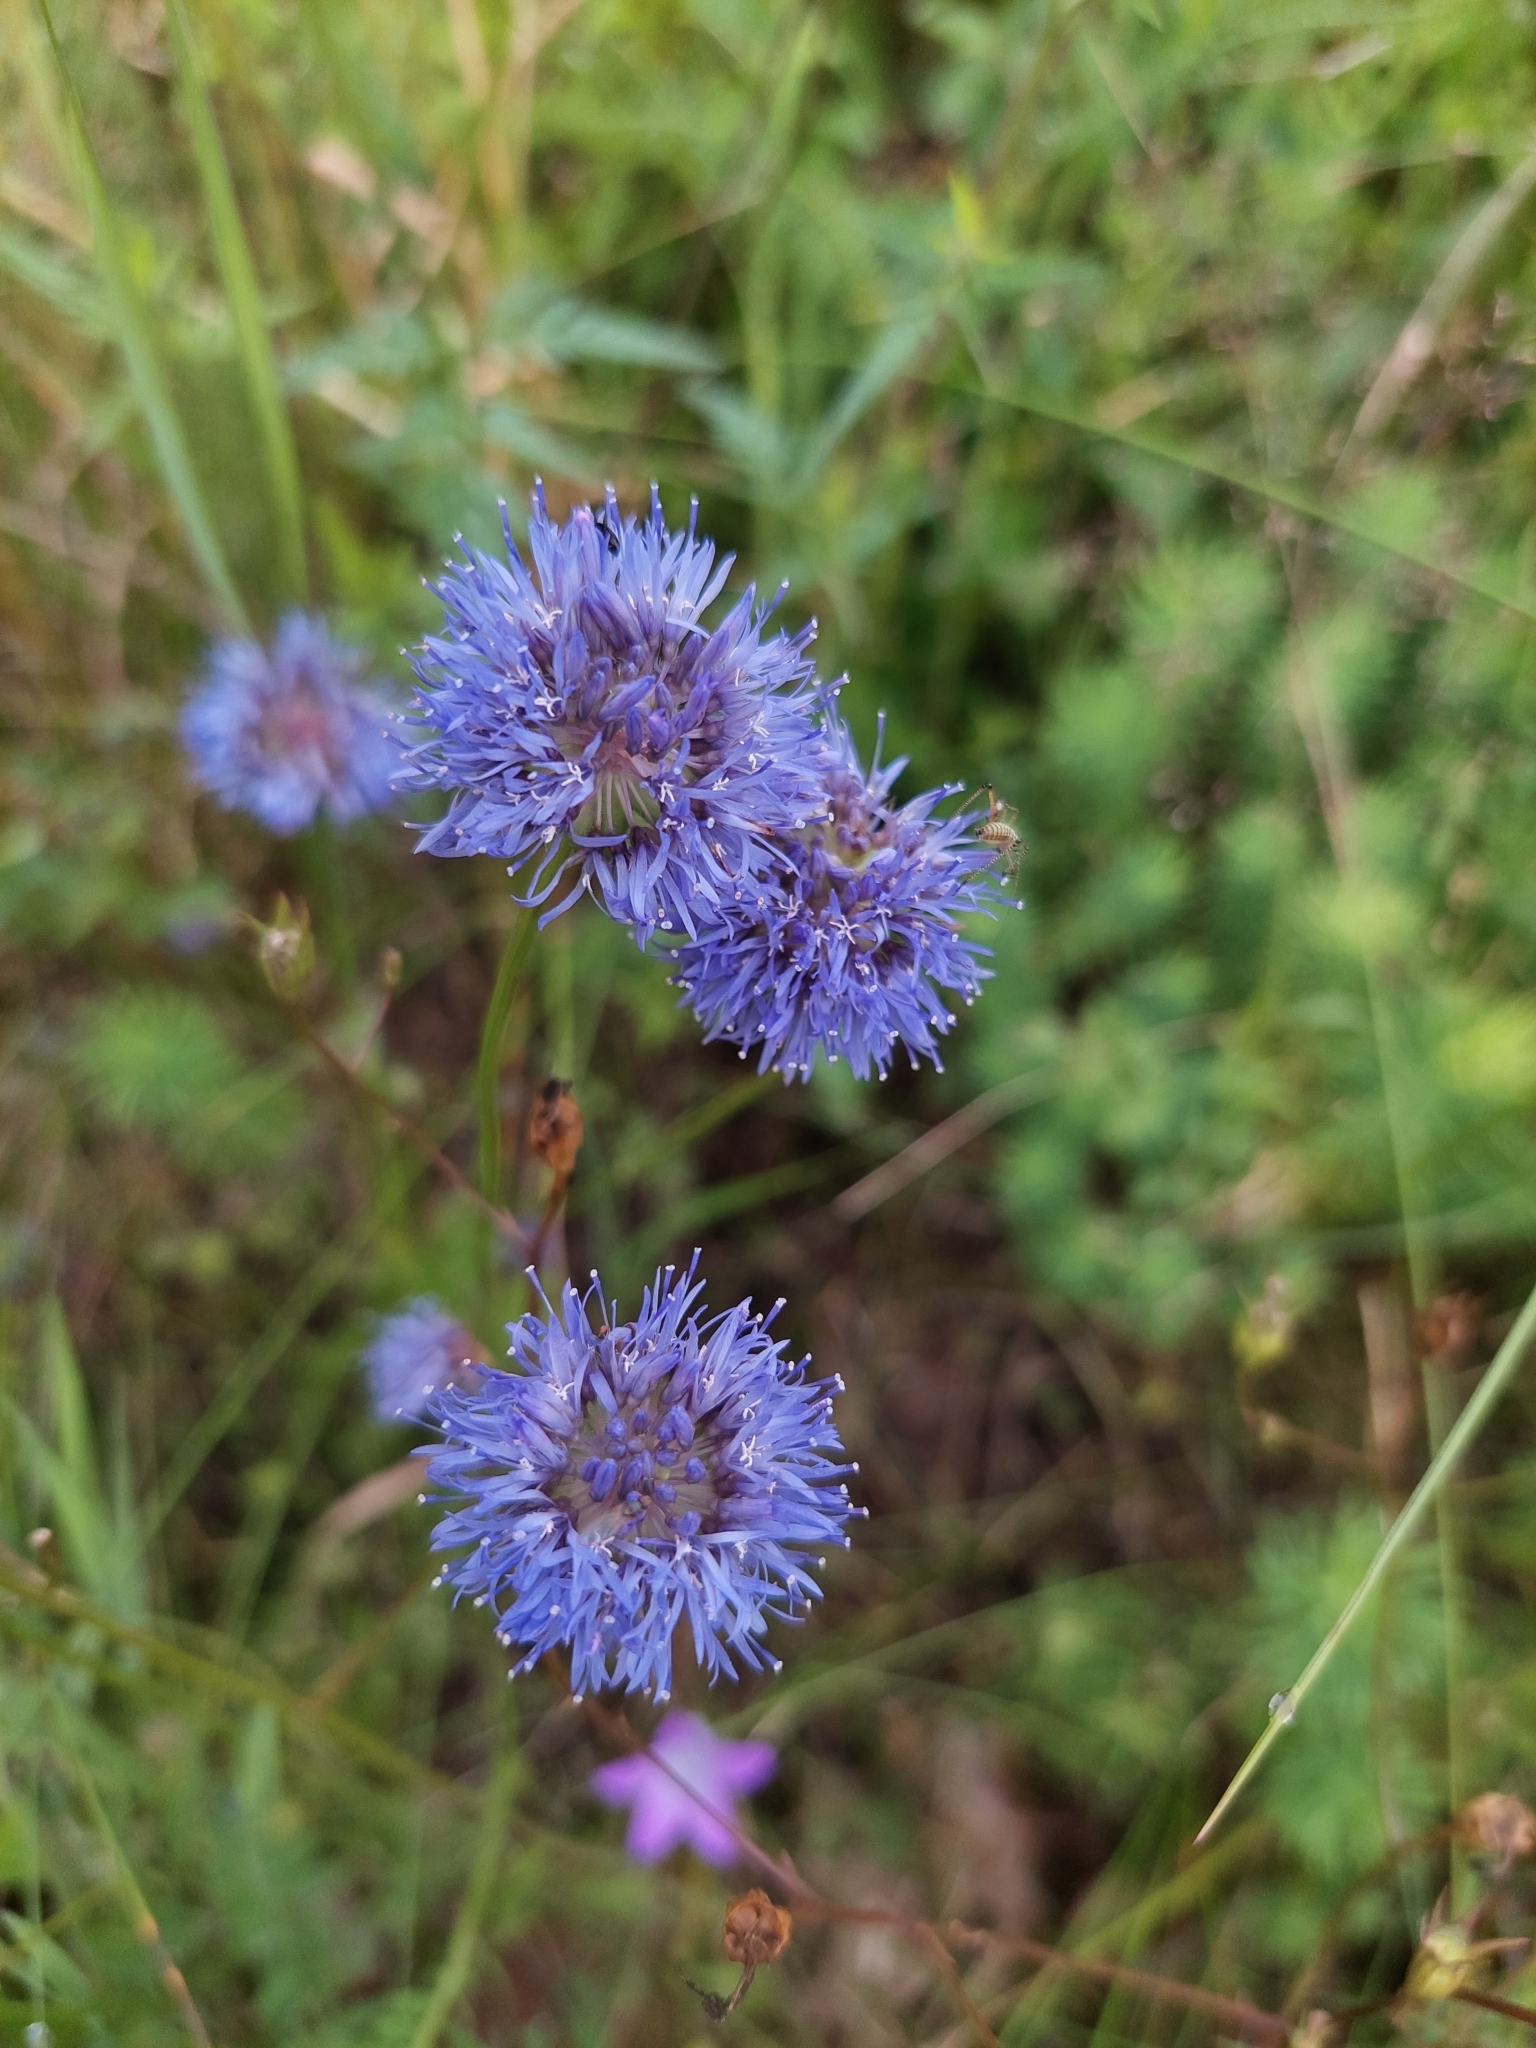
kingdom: Plantae
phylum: Tracheophyta
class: Magnoliopsida
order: Asterales
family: Campanulaceae
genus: Jasione
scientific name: Jasione montana
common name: Sheep's-bit
